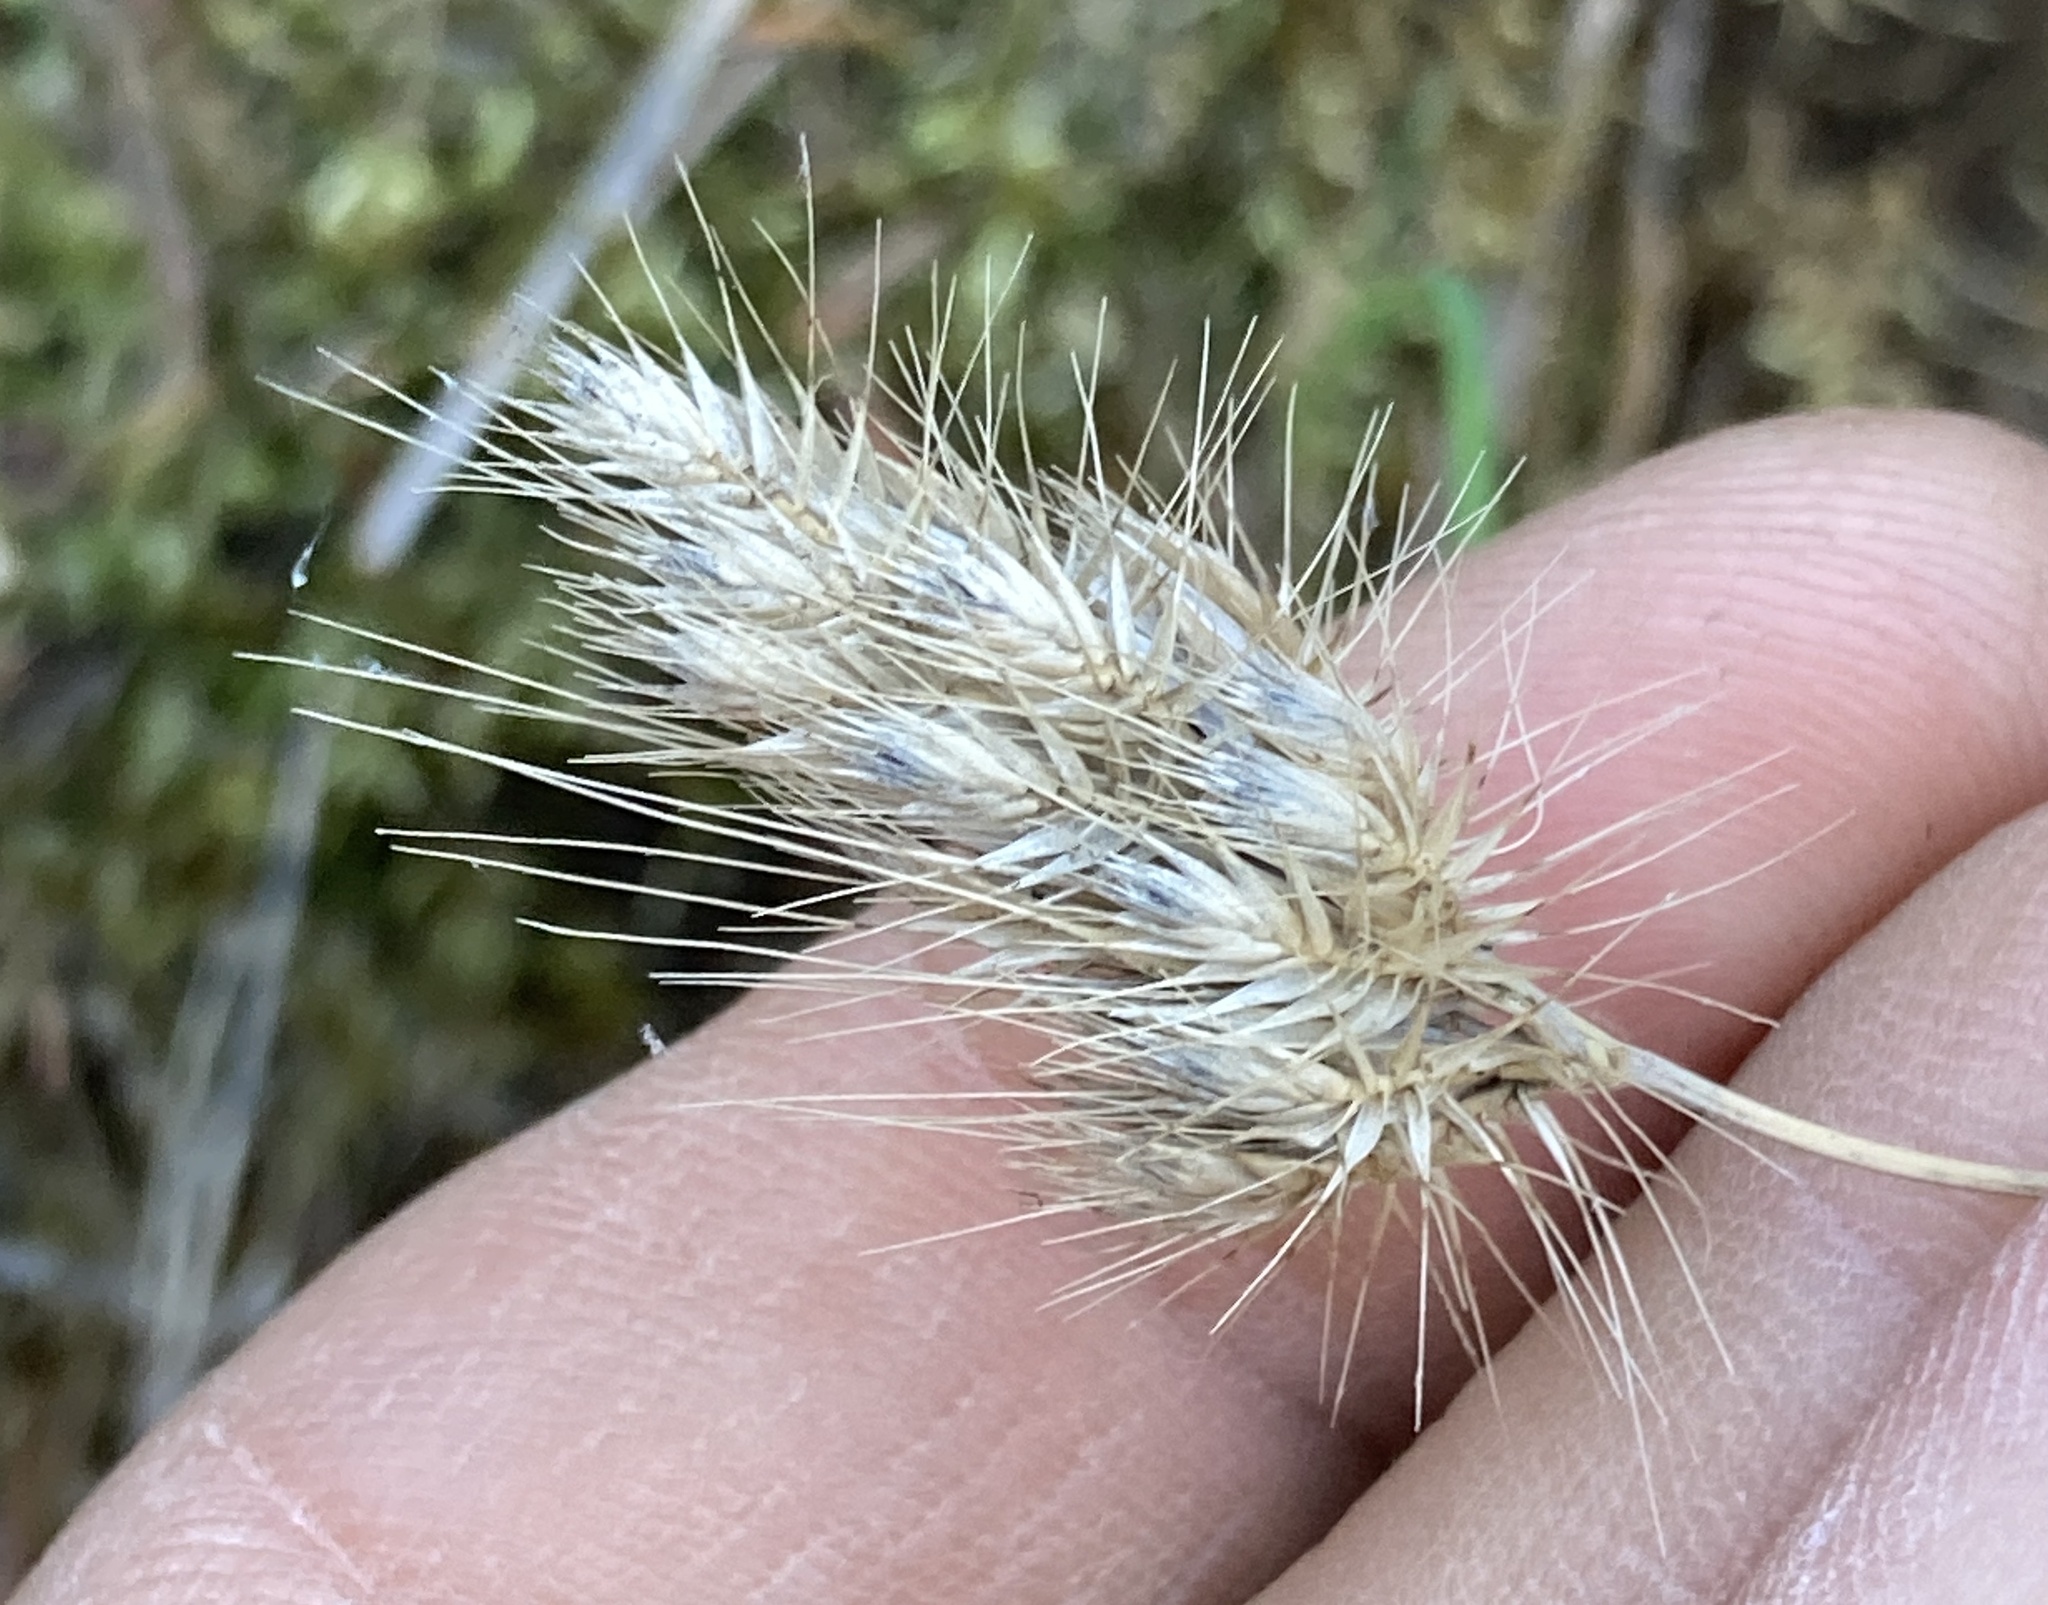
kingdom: Plantae
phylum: Tracheophyta
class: Liliopsida
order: Poales
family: Poaceae
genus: Cynosurus
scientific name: Cynosurus echinatus
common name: Rough dog's-tail
